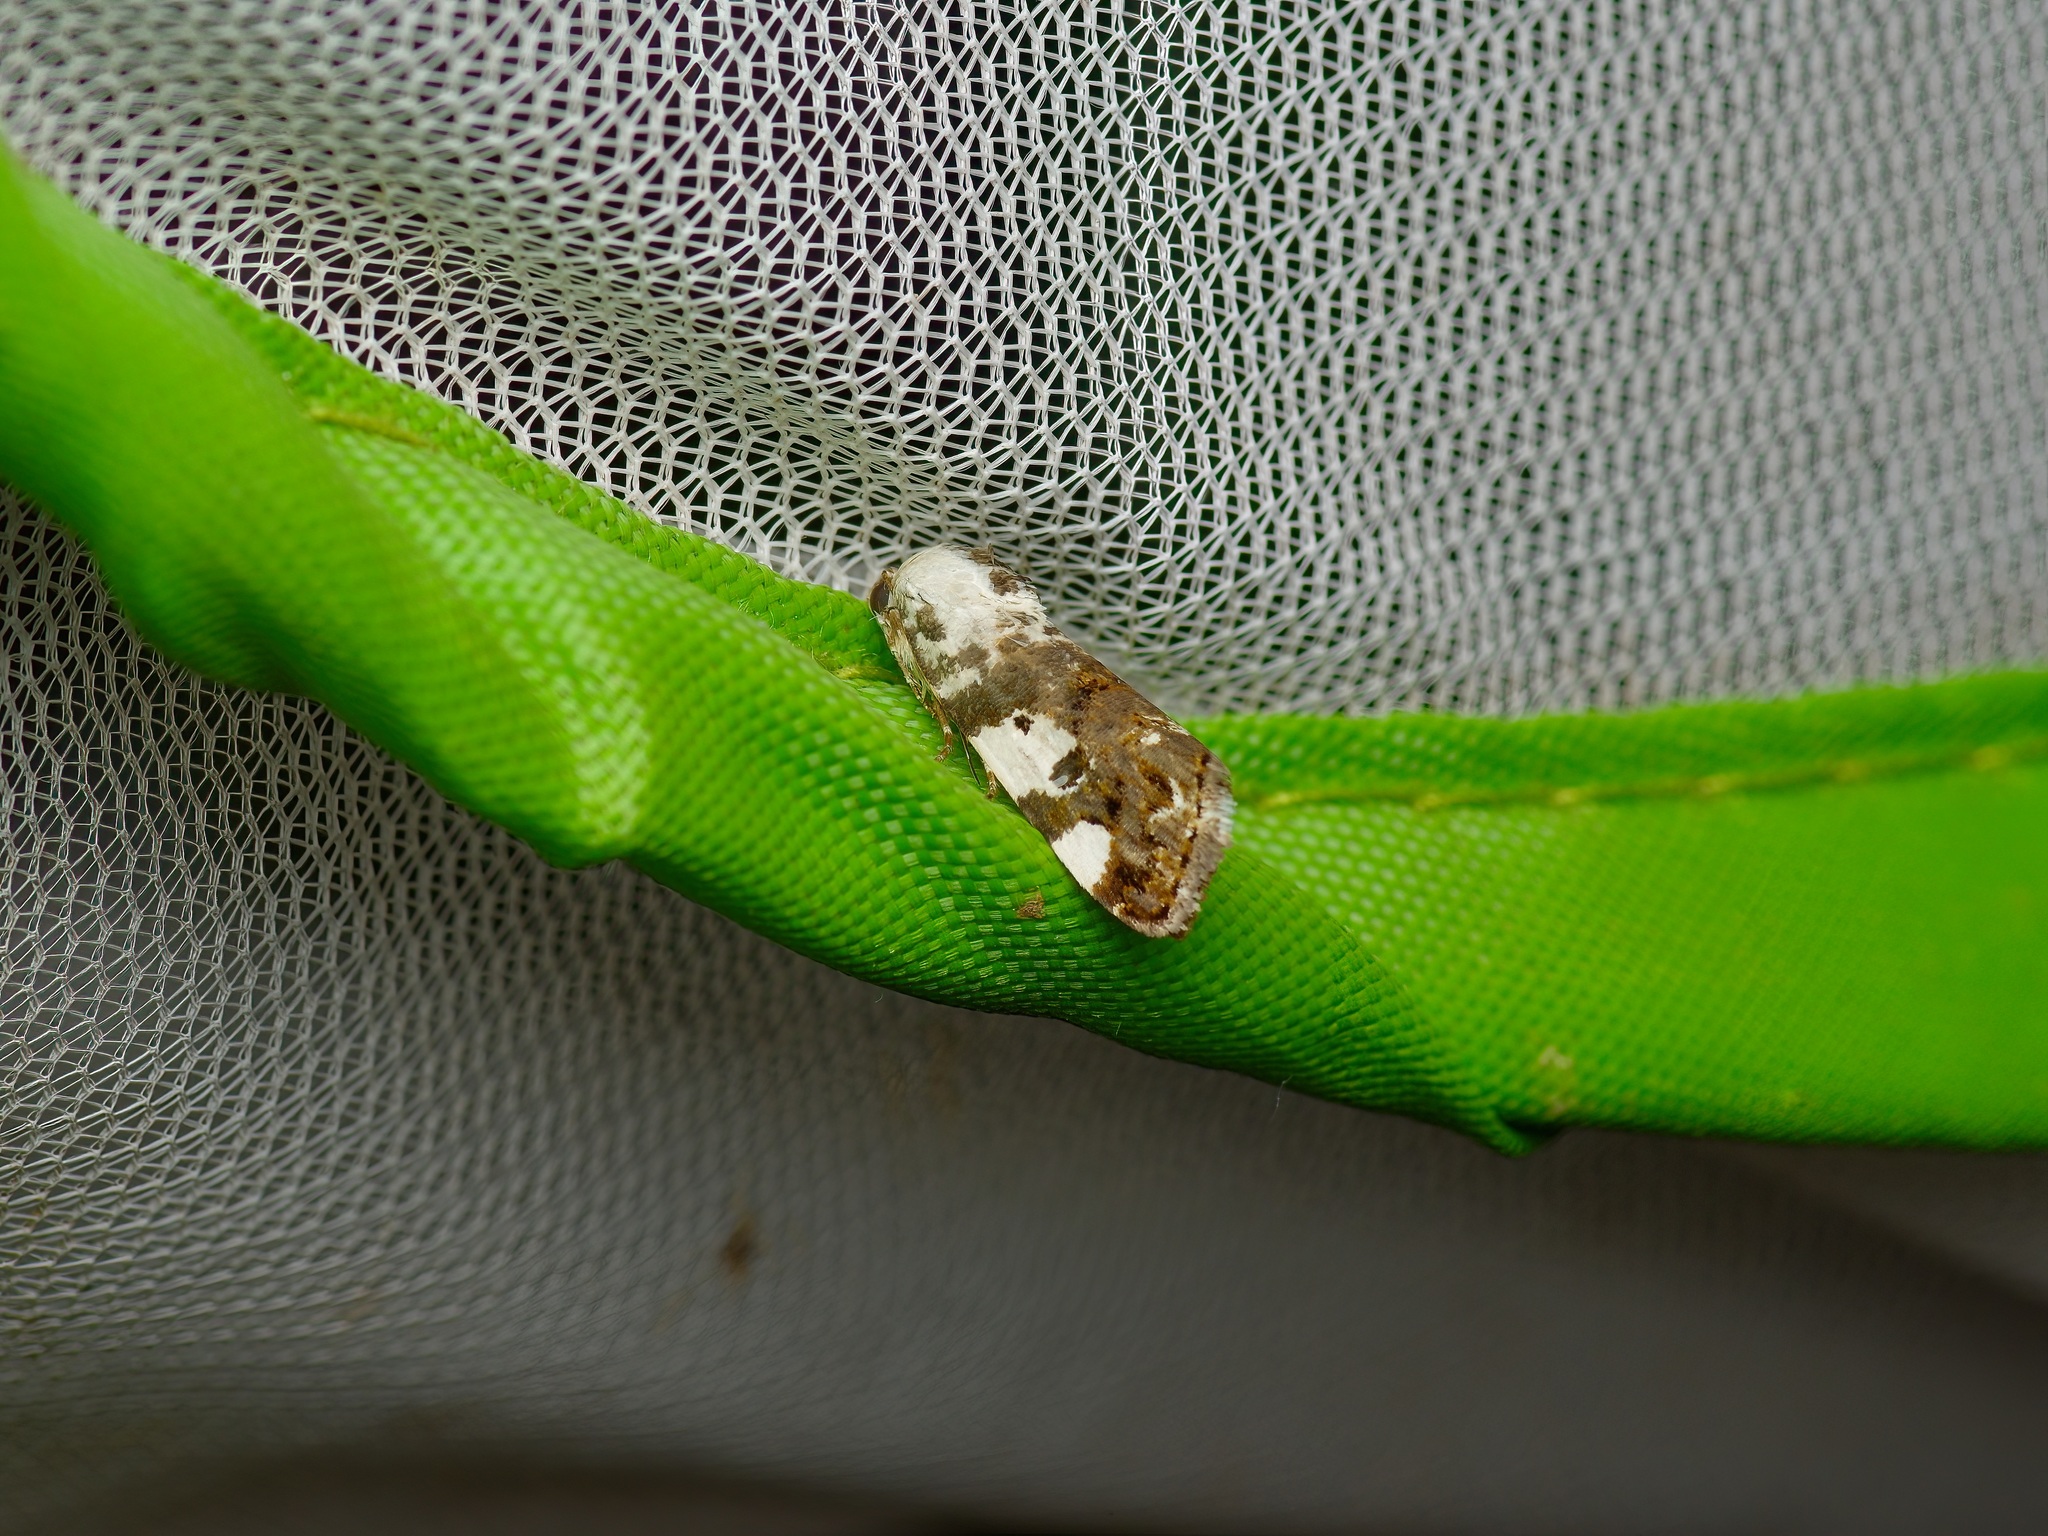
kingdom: Animalia
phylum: Arthropoda
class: Insecta
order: Lepidoptera
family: Noctuidae
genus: Acontia
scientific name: Acontia aprica
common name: Nun
